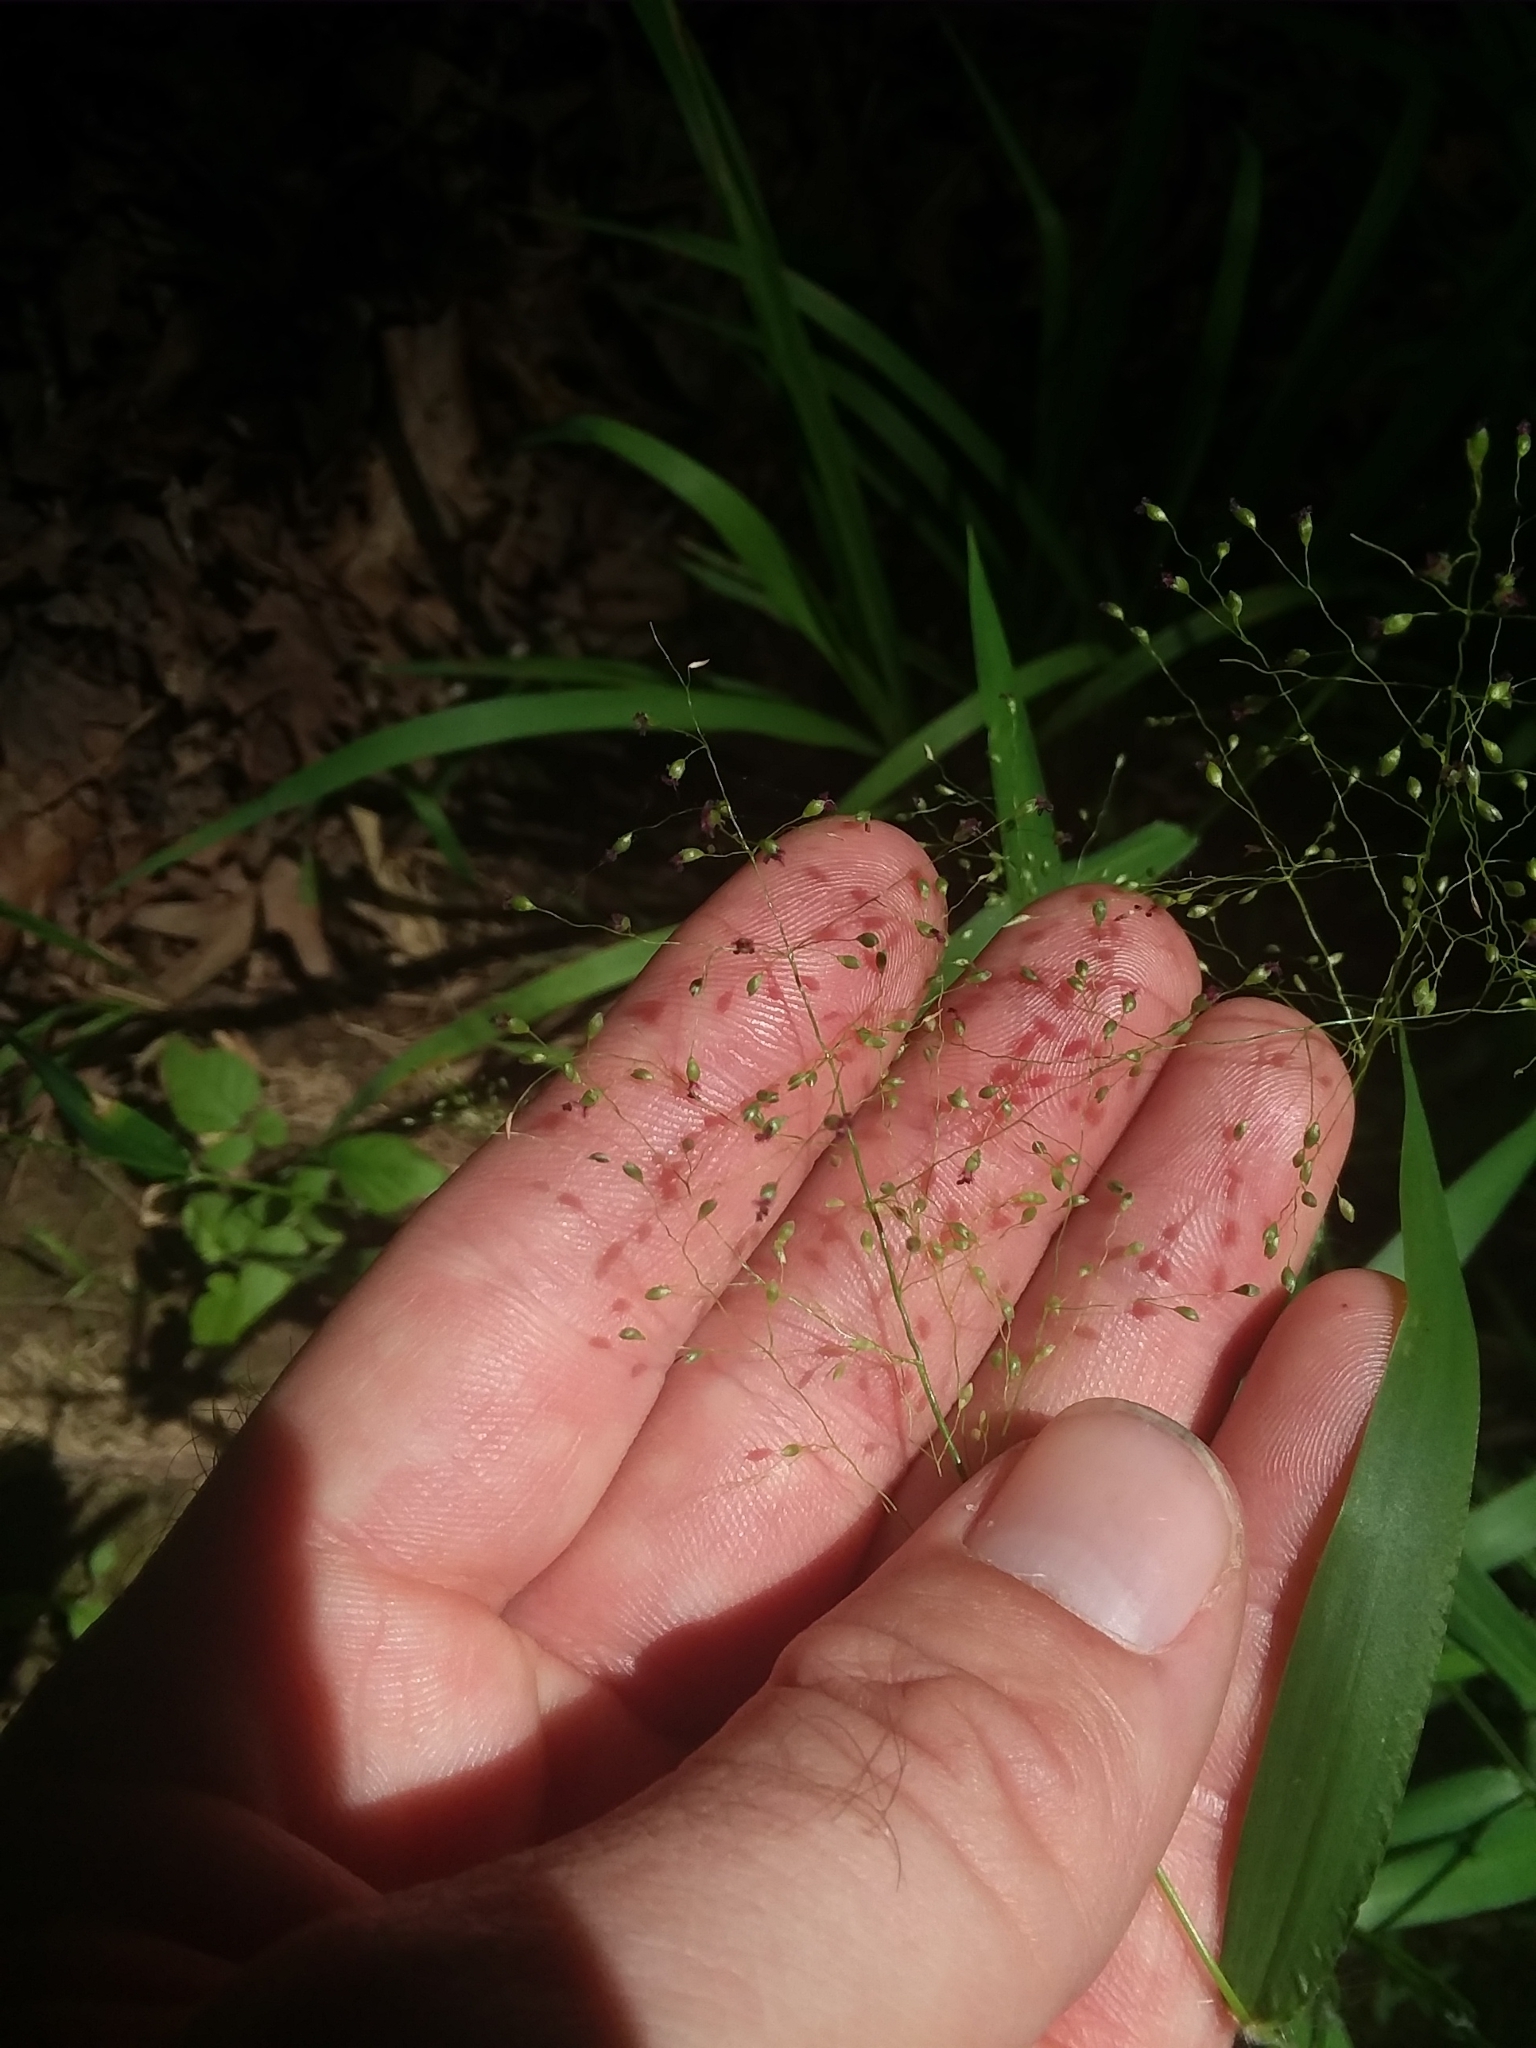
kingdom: Plantae
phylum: Tracheophyta
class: Liliopsida
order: Poales
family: Poaceae
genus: Dichanthelium
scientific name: Dichanthelium microcarpon
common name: Small-fruited witchgrass
